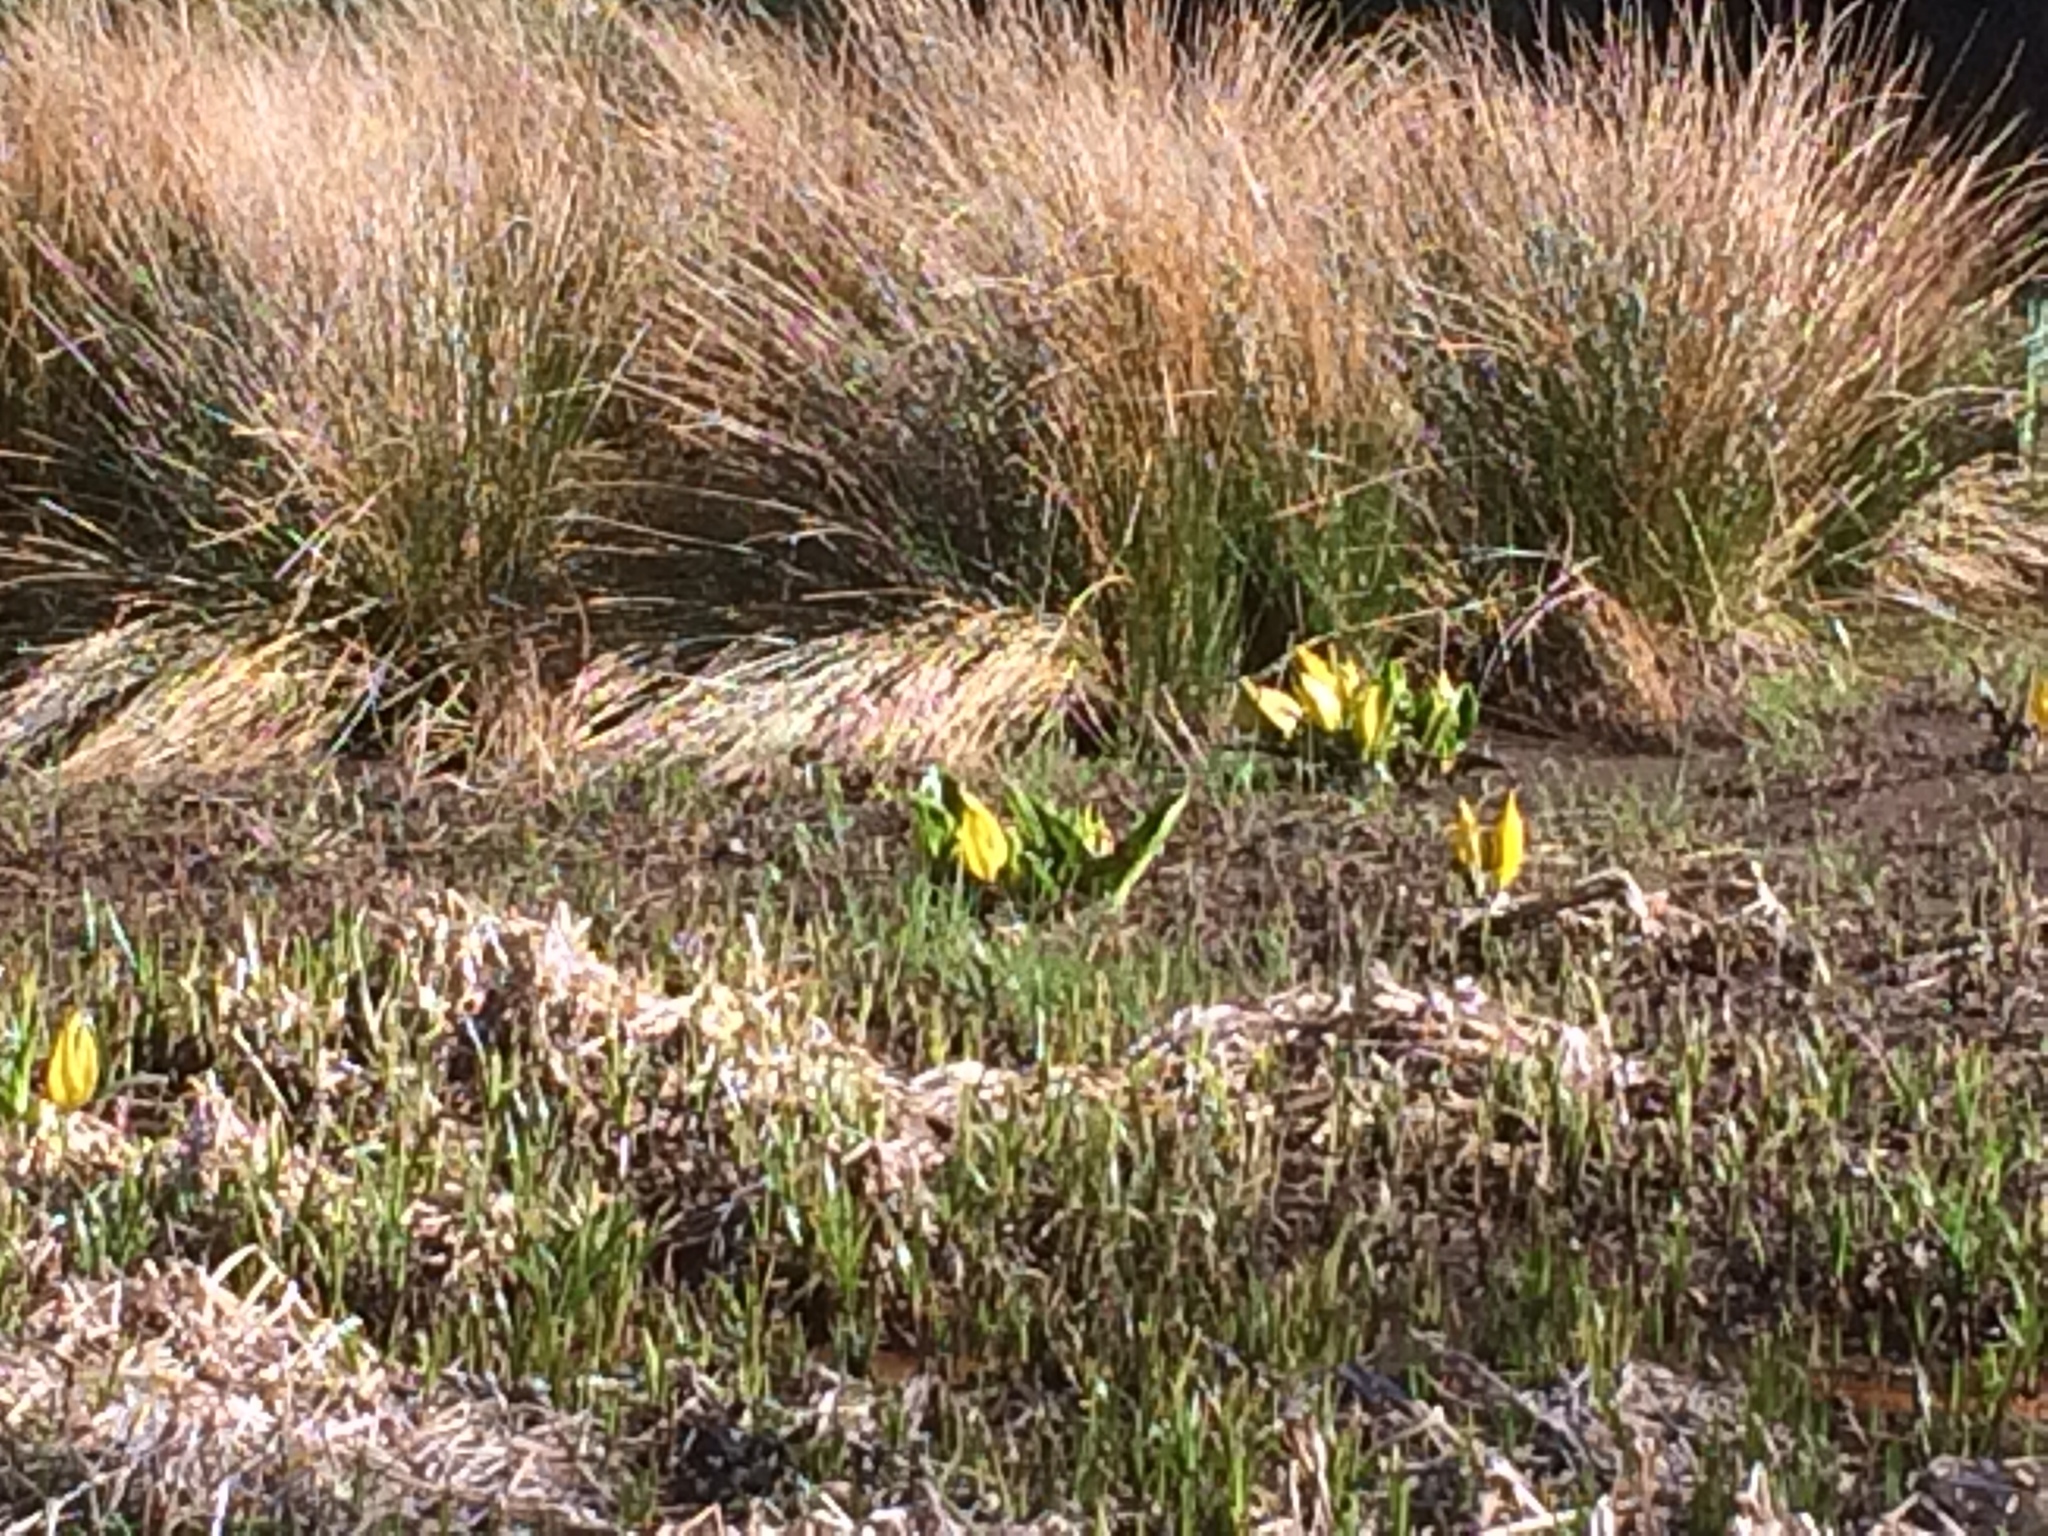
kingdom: Plantae
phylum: Tracheophyta
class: Liliopsida
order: Alismatales
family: Araceae
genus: Lysichiton
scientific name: Lysichiton americanus
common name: American skunk cabbage
